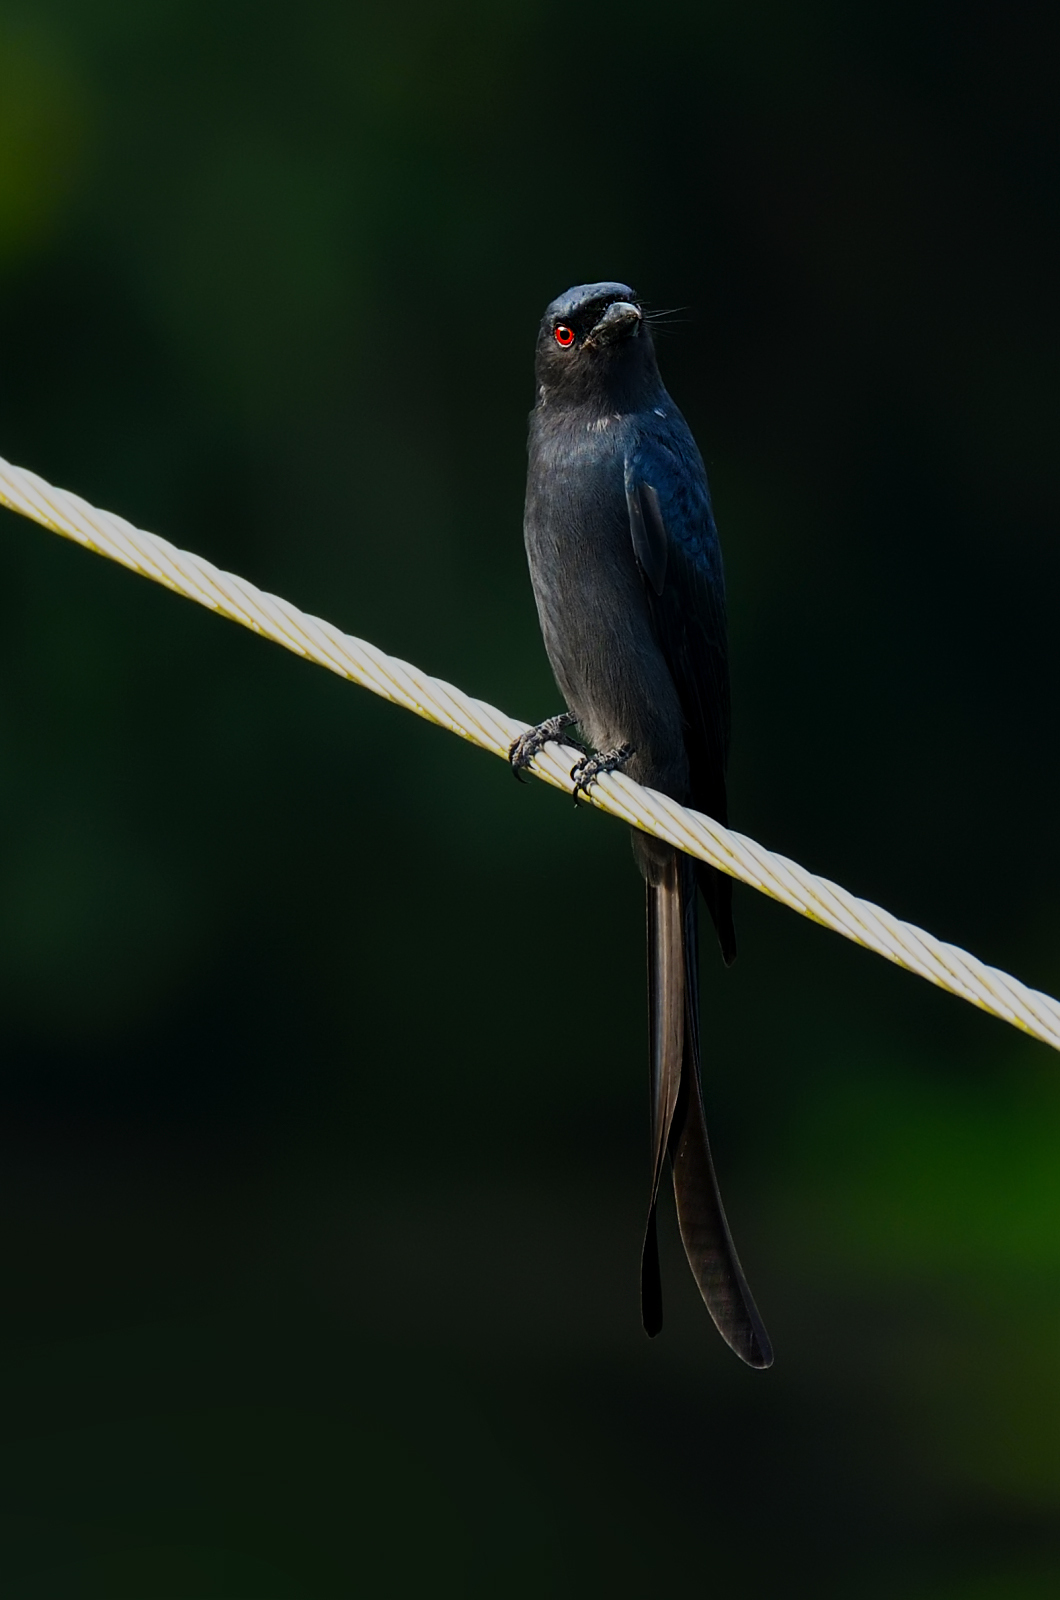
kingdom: Animalia
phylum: Chordata
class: Aves
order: Passeriformes
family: Dicruridae
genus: Dicrurus
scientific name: Dicrurus leucophaeus
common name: Ashy drongo
